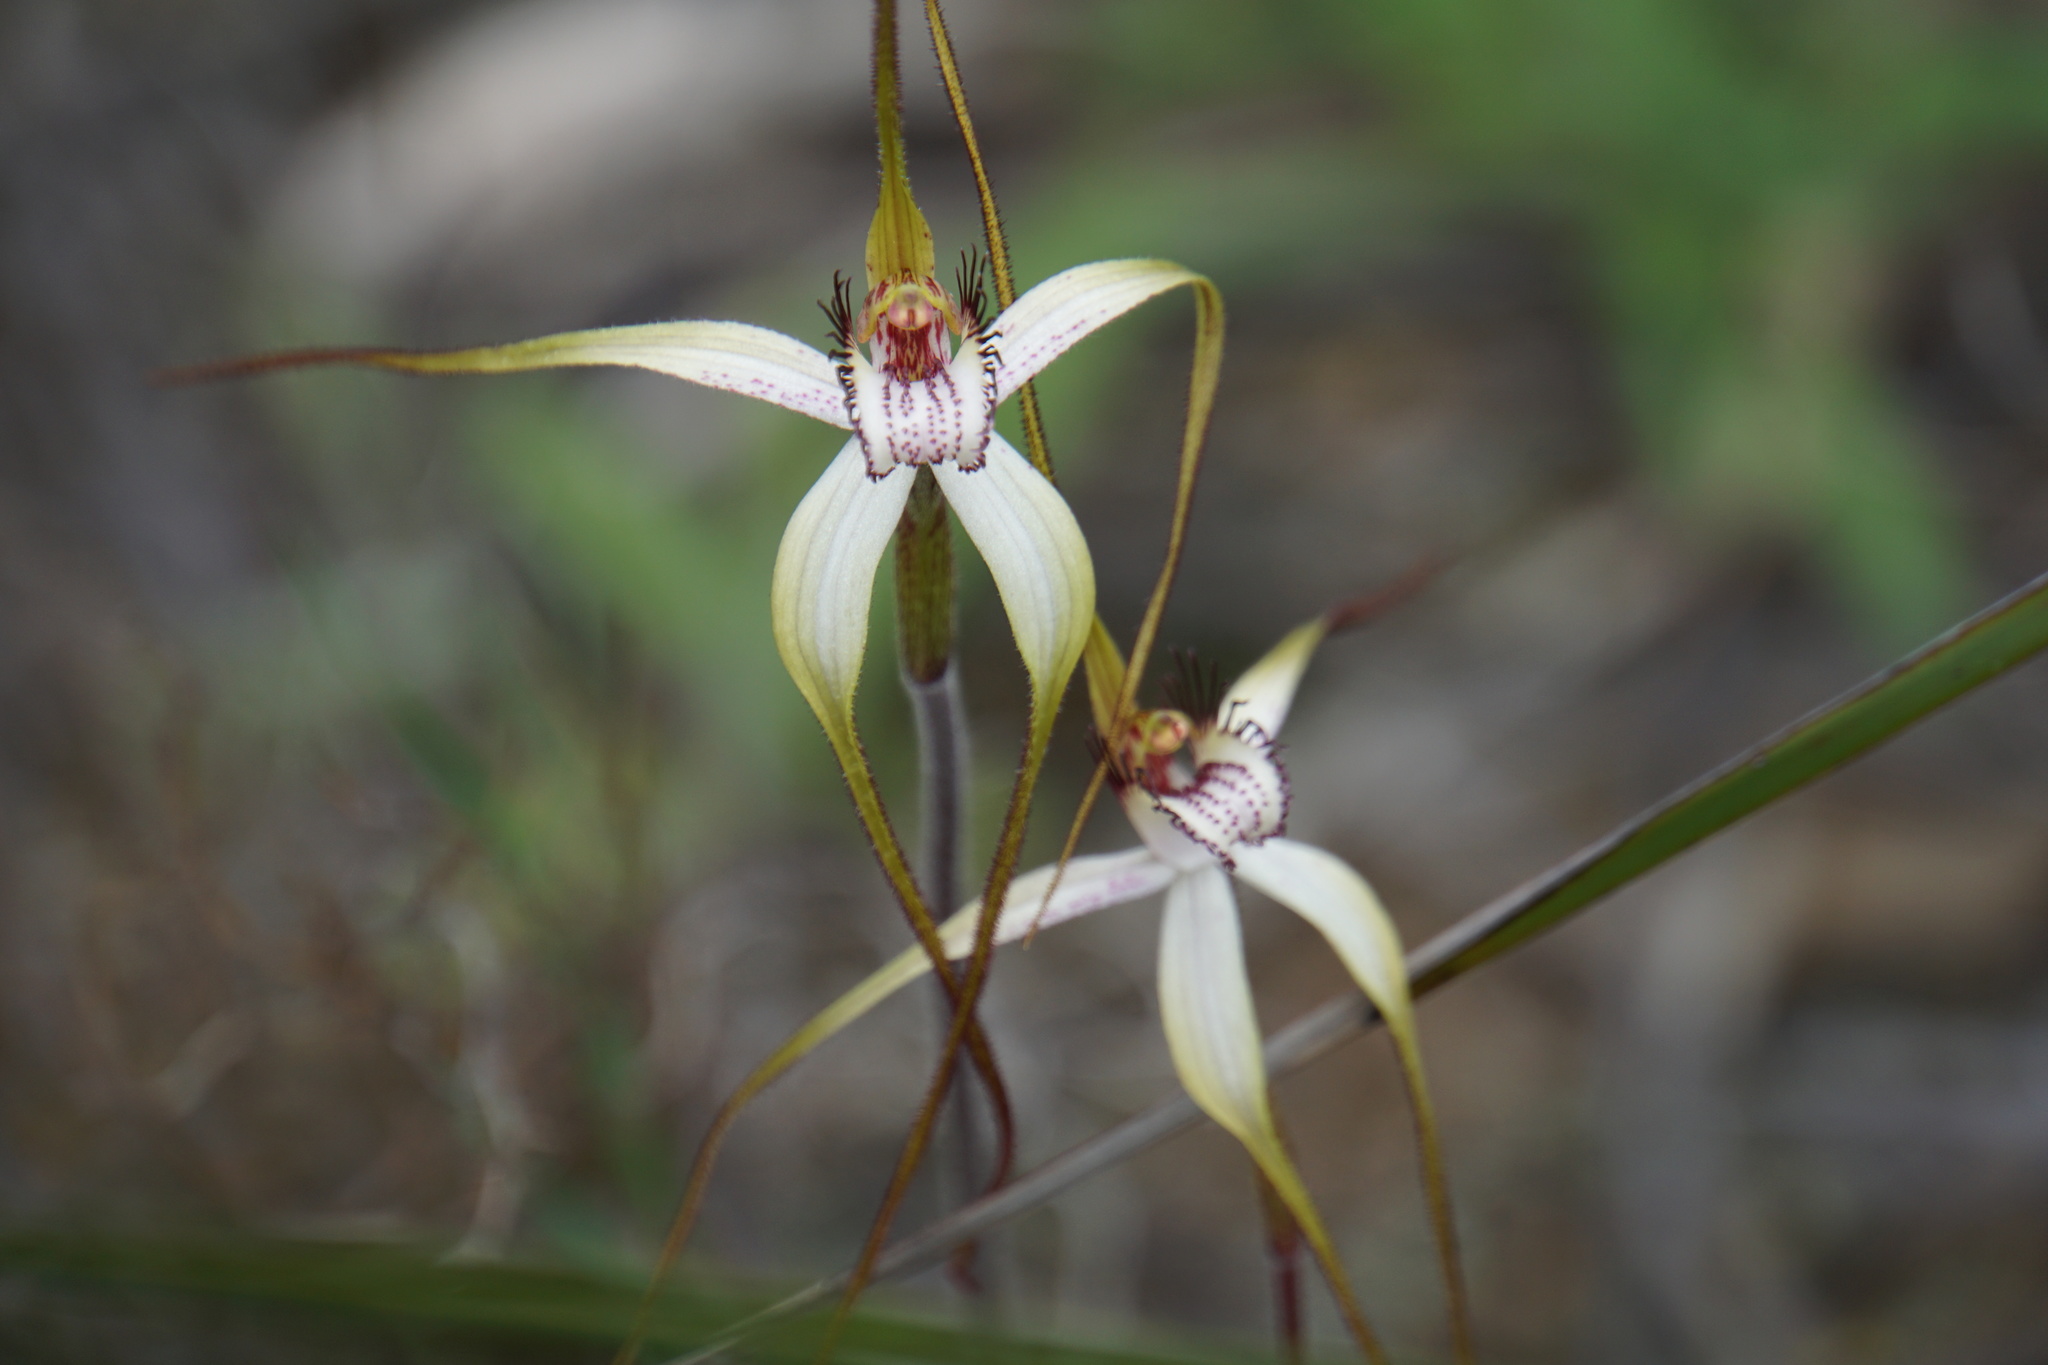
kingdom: Plantae
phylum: Tracheophyta
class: Liliopsida
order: Asparagales
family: Orchidaceae
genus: Caladenia
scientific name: Caladenia longicauda
